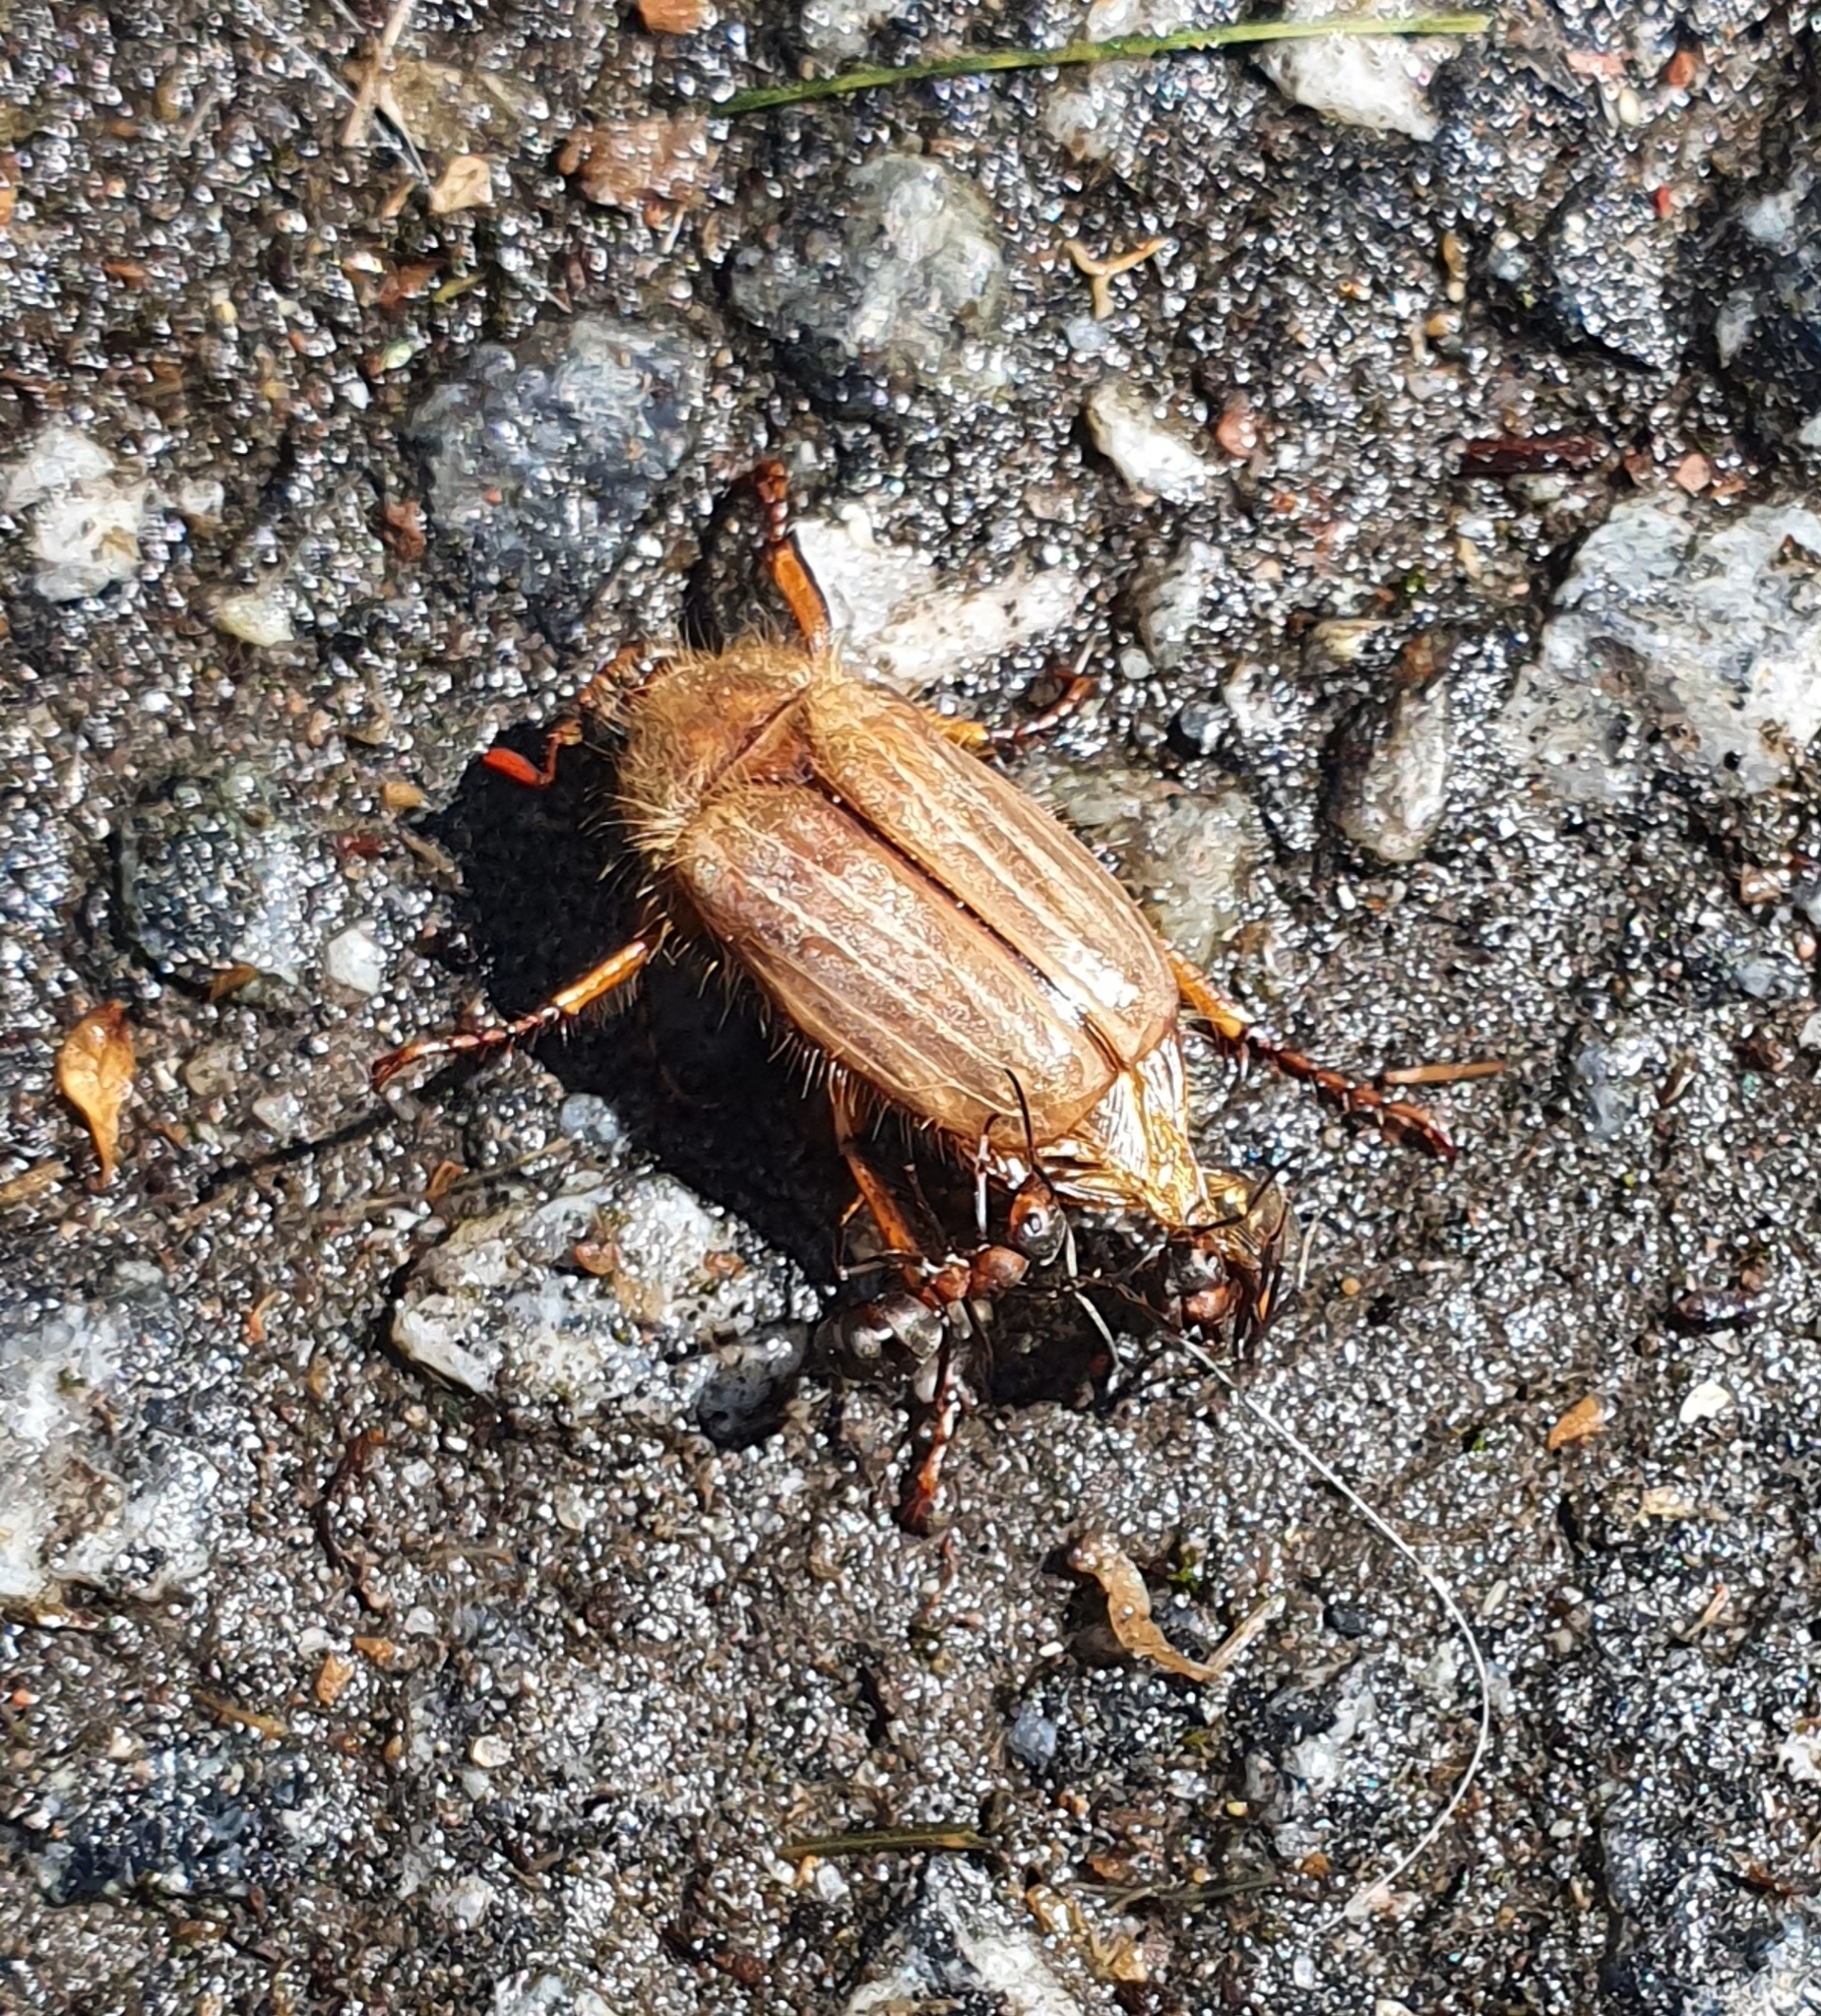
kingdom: Animalia
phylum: Arthropoda
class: Insecta
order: Coleoptera
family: Scarabaeidae
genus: Amphimallon
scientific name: Amphimallon solstitiale
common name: Summer chafer
